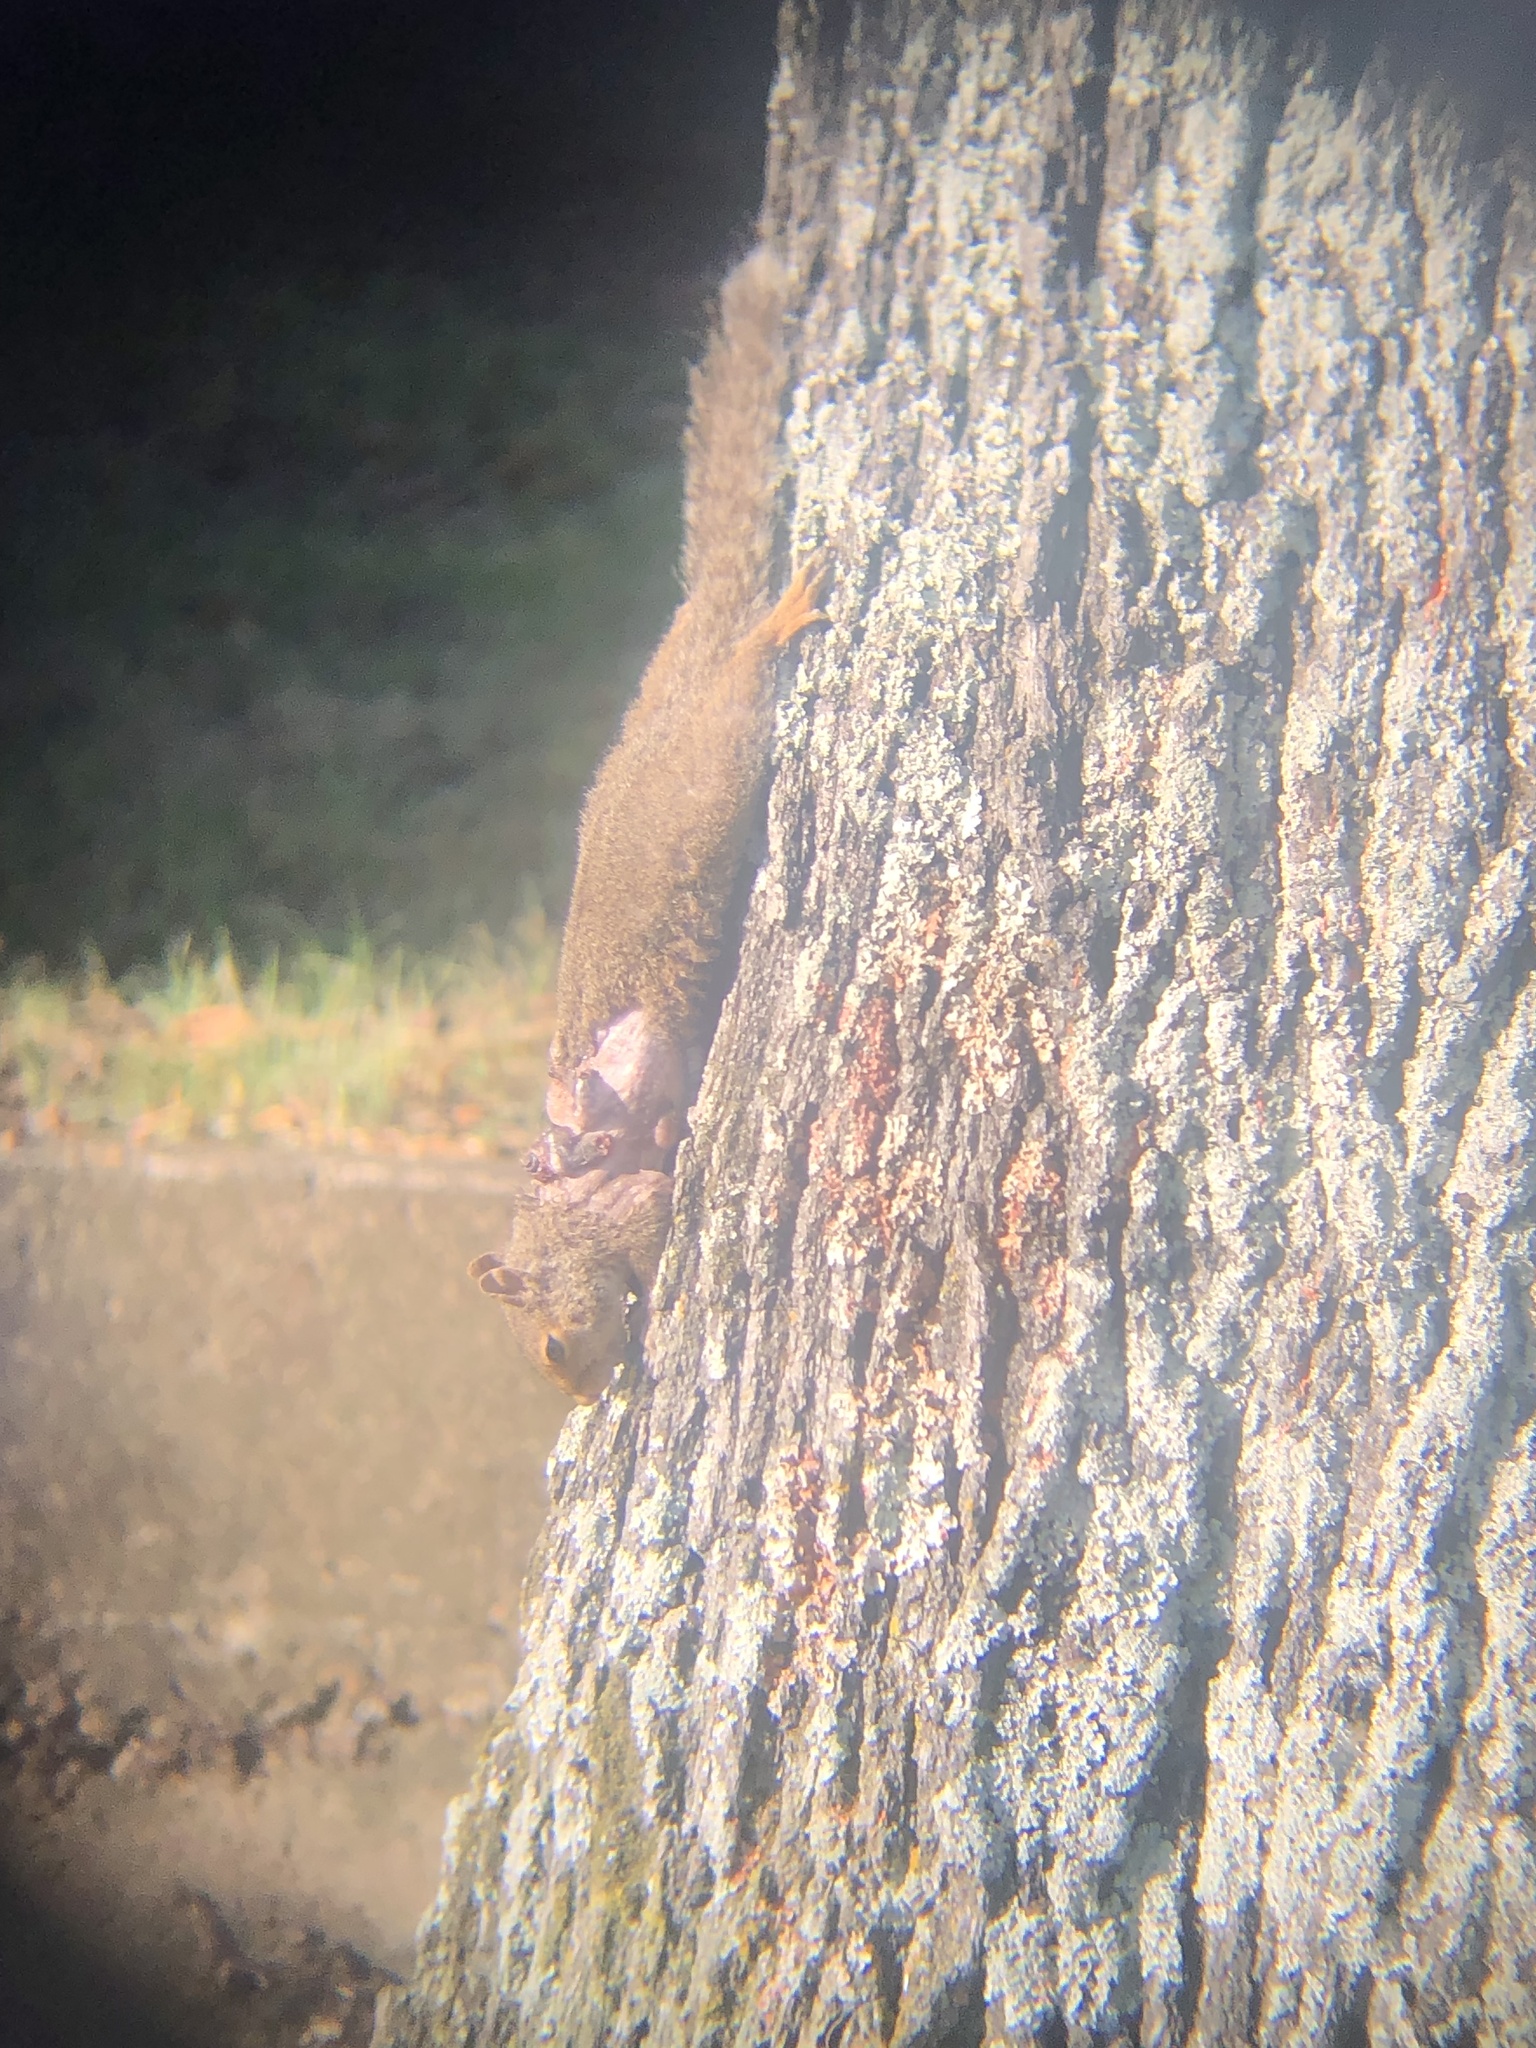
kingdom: Animalia
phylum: Chordata
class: Mammalia
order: Rodentia
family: Sciuridae
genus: Sciurus
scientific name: Sciurus carolinensis
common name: Eastern gray squirrel
